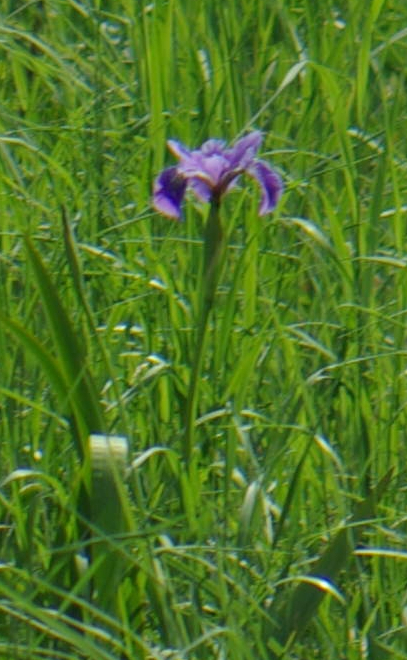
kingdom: Plantae
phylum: Tracheophyta
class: Liliopsida
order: Asparagales
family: Iridaceae
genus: Iris
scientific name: Iris versicolor
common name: Purple iris
